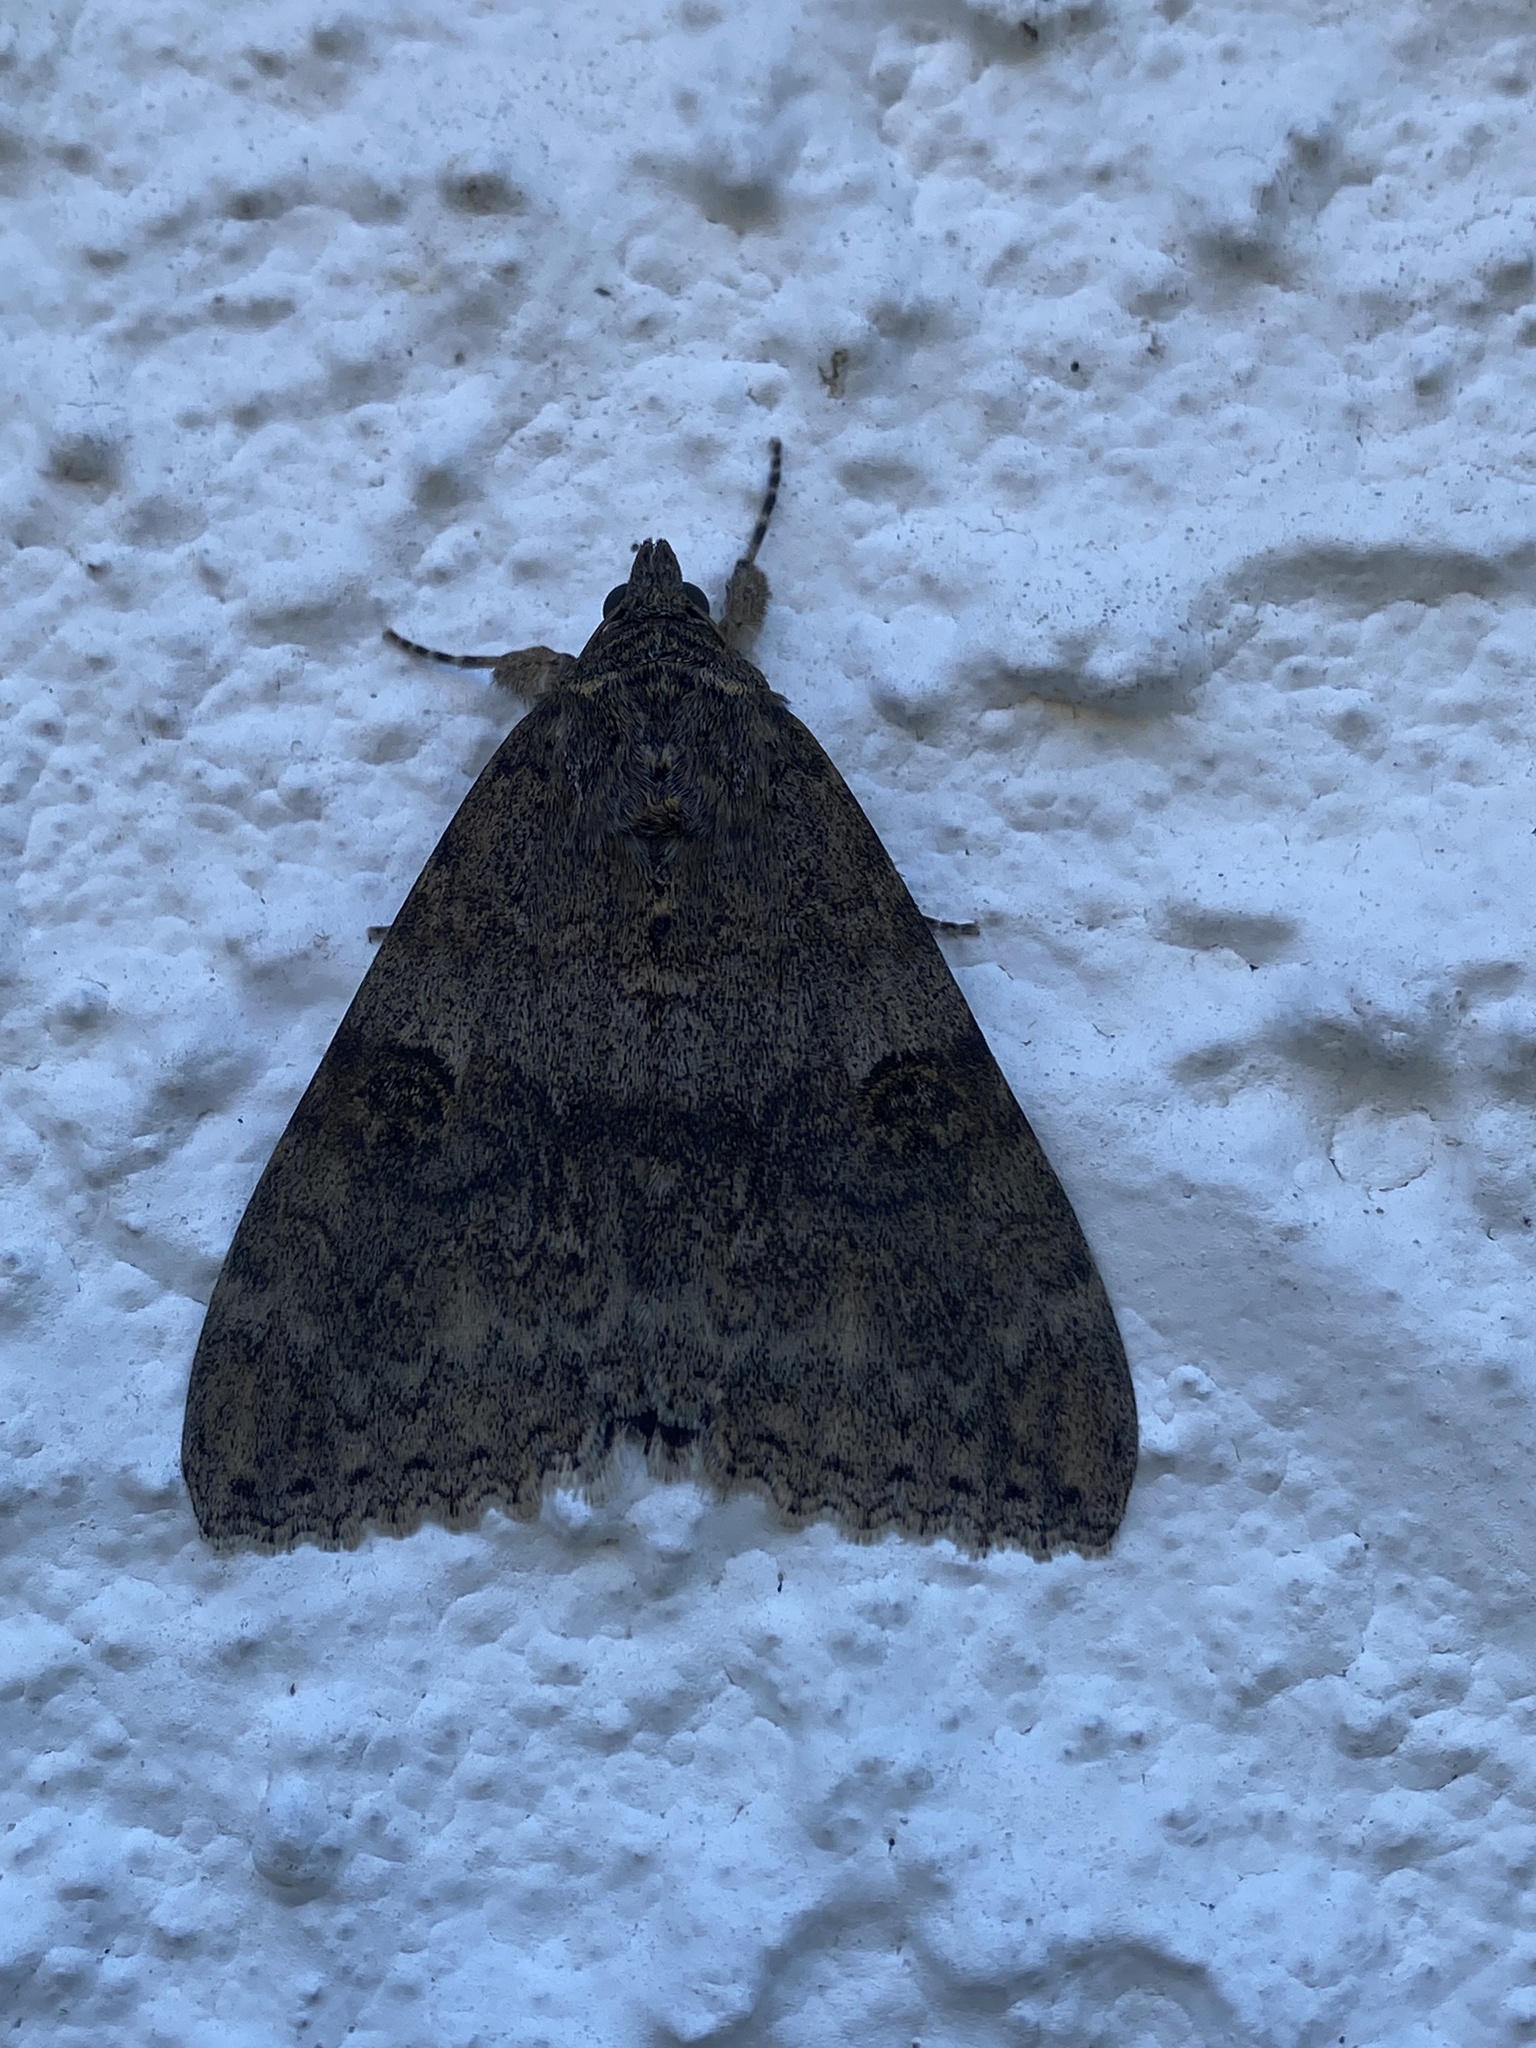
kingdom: Animalia
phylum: Arthropoda
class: Insecta
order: Lepidoptera
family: Erebidae
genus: Catocala
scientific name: Catocala nupta
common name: Red underwing
